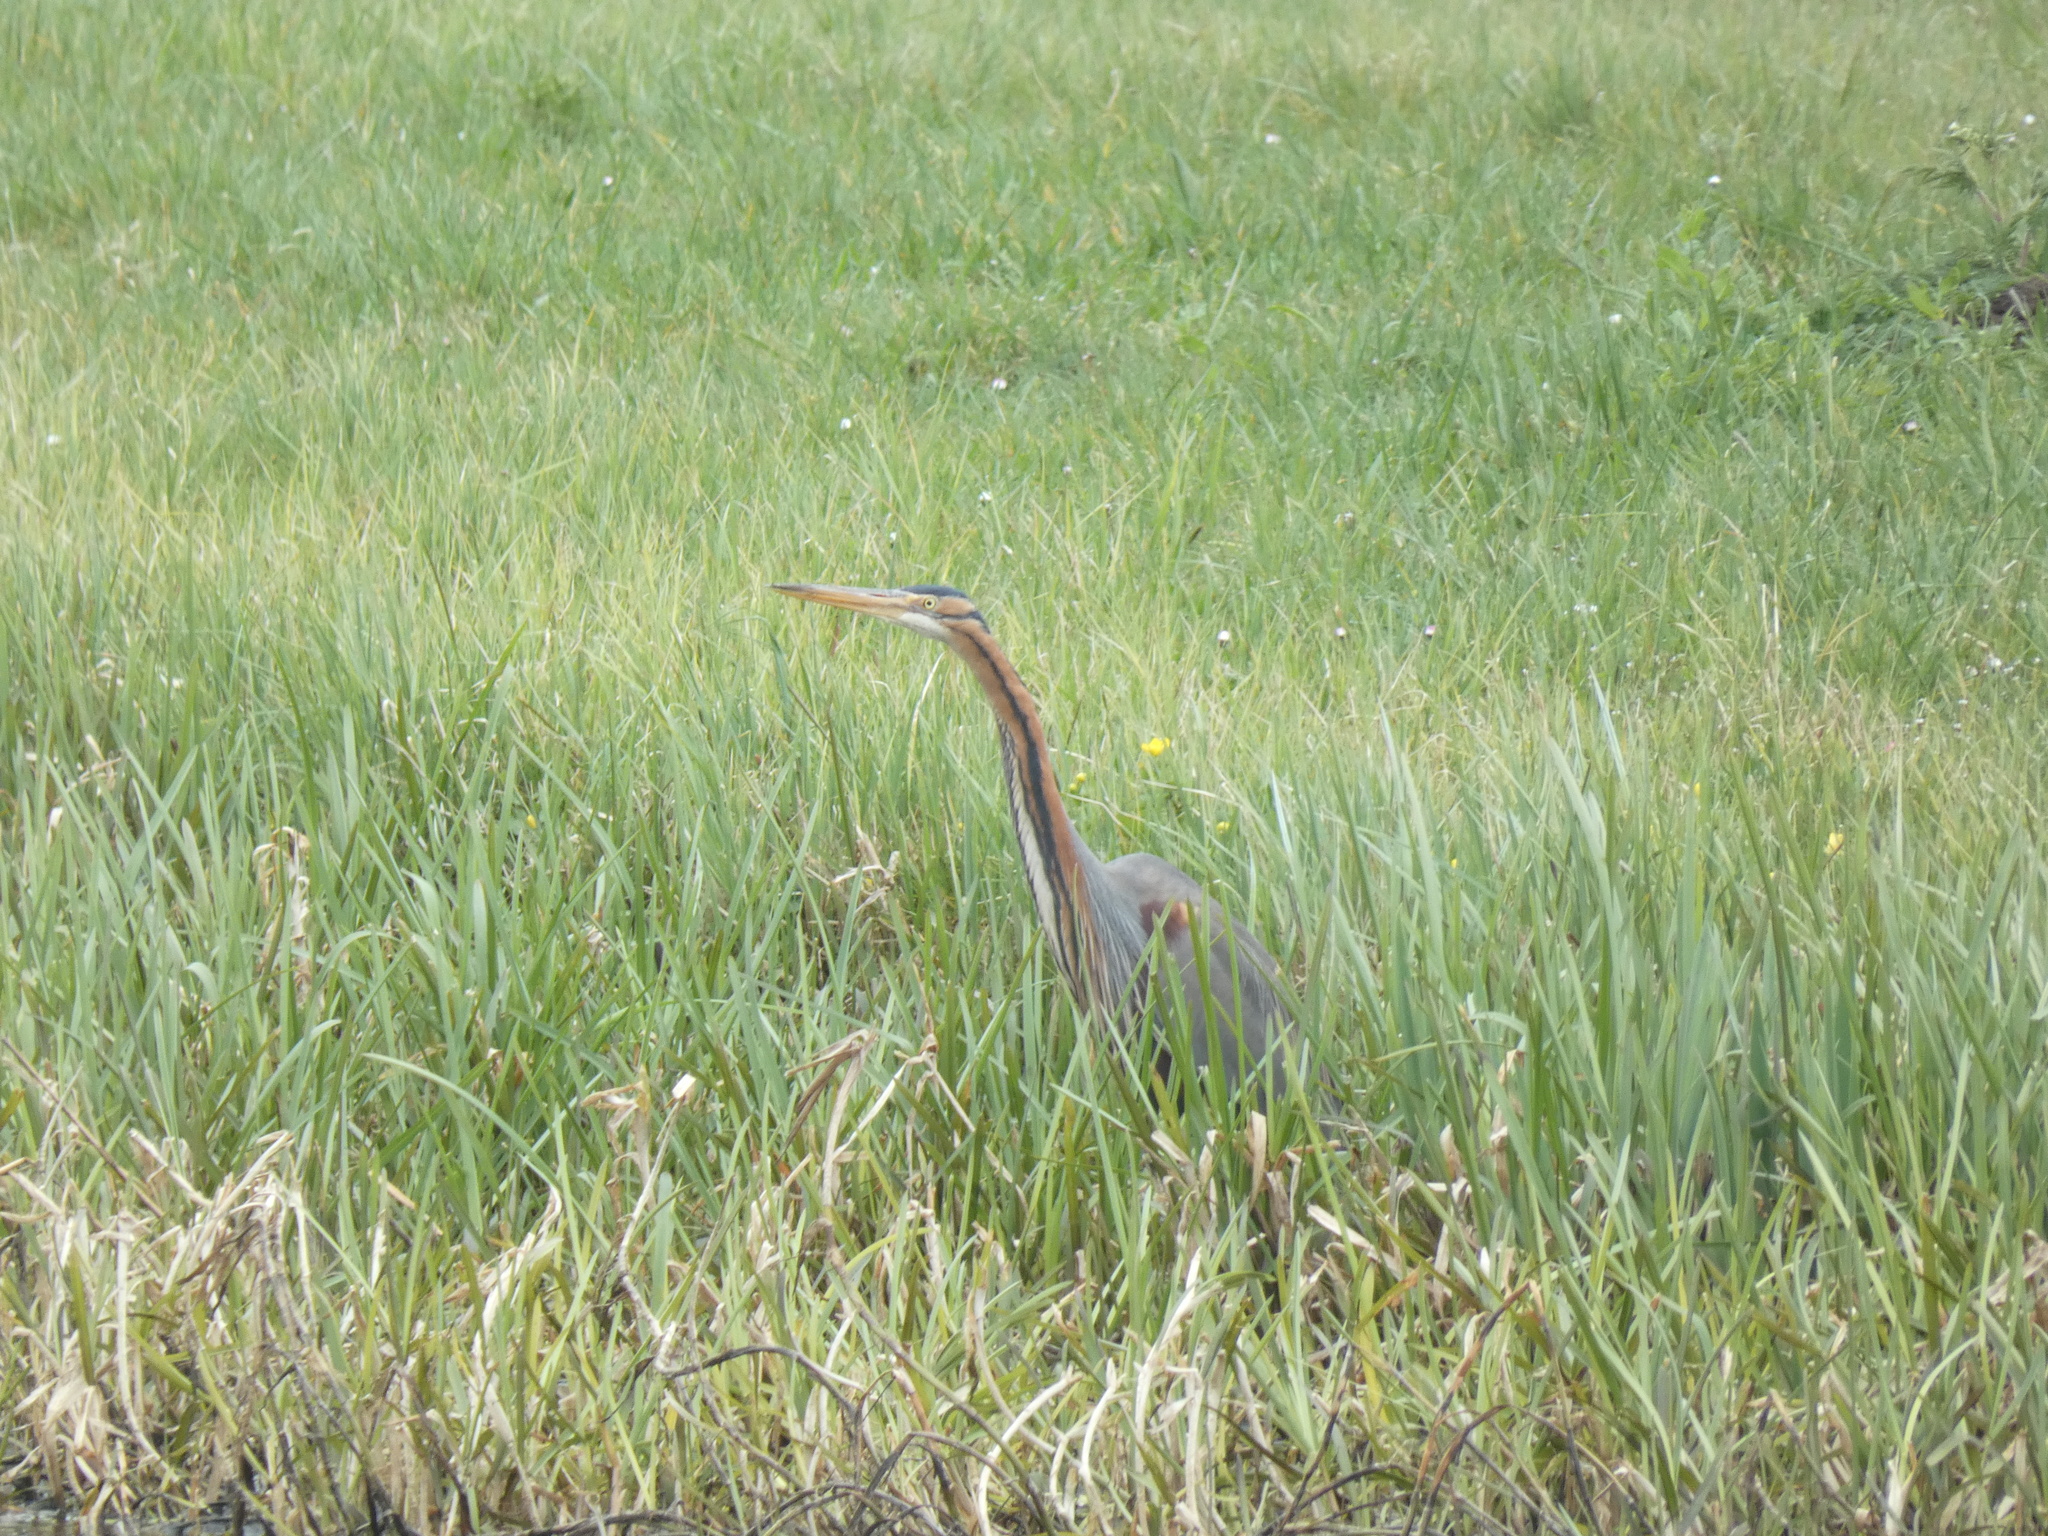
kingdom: Animalia
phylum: Chordata
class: Aves
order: Pelecaniformes
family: Ardeidae
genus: Ardea
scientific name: Ardea purpurea
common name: Purple heron
